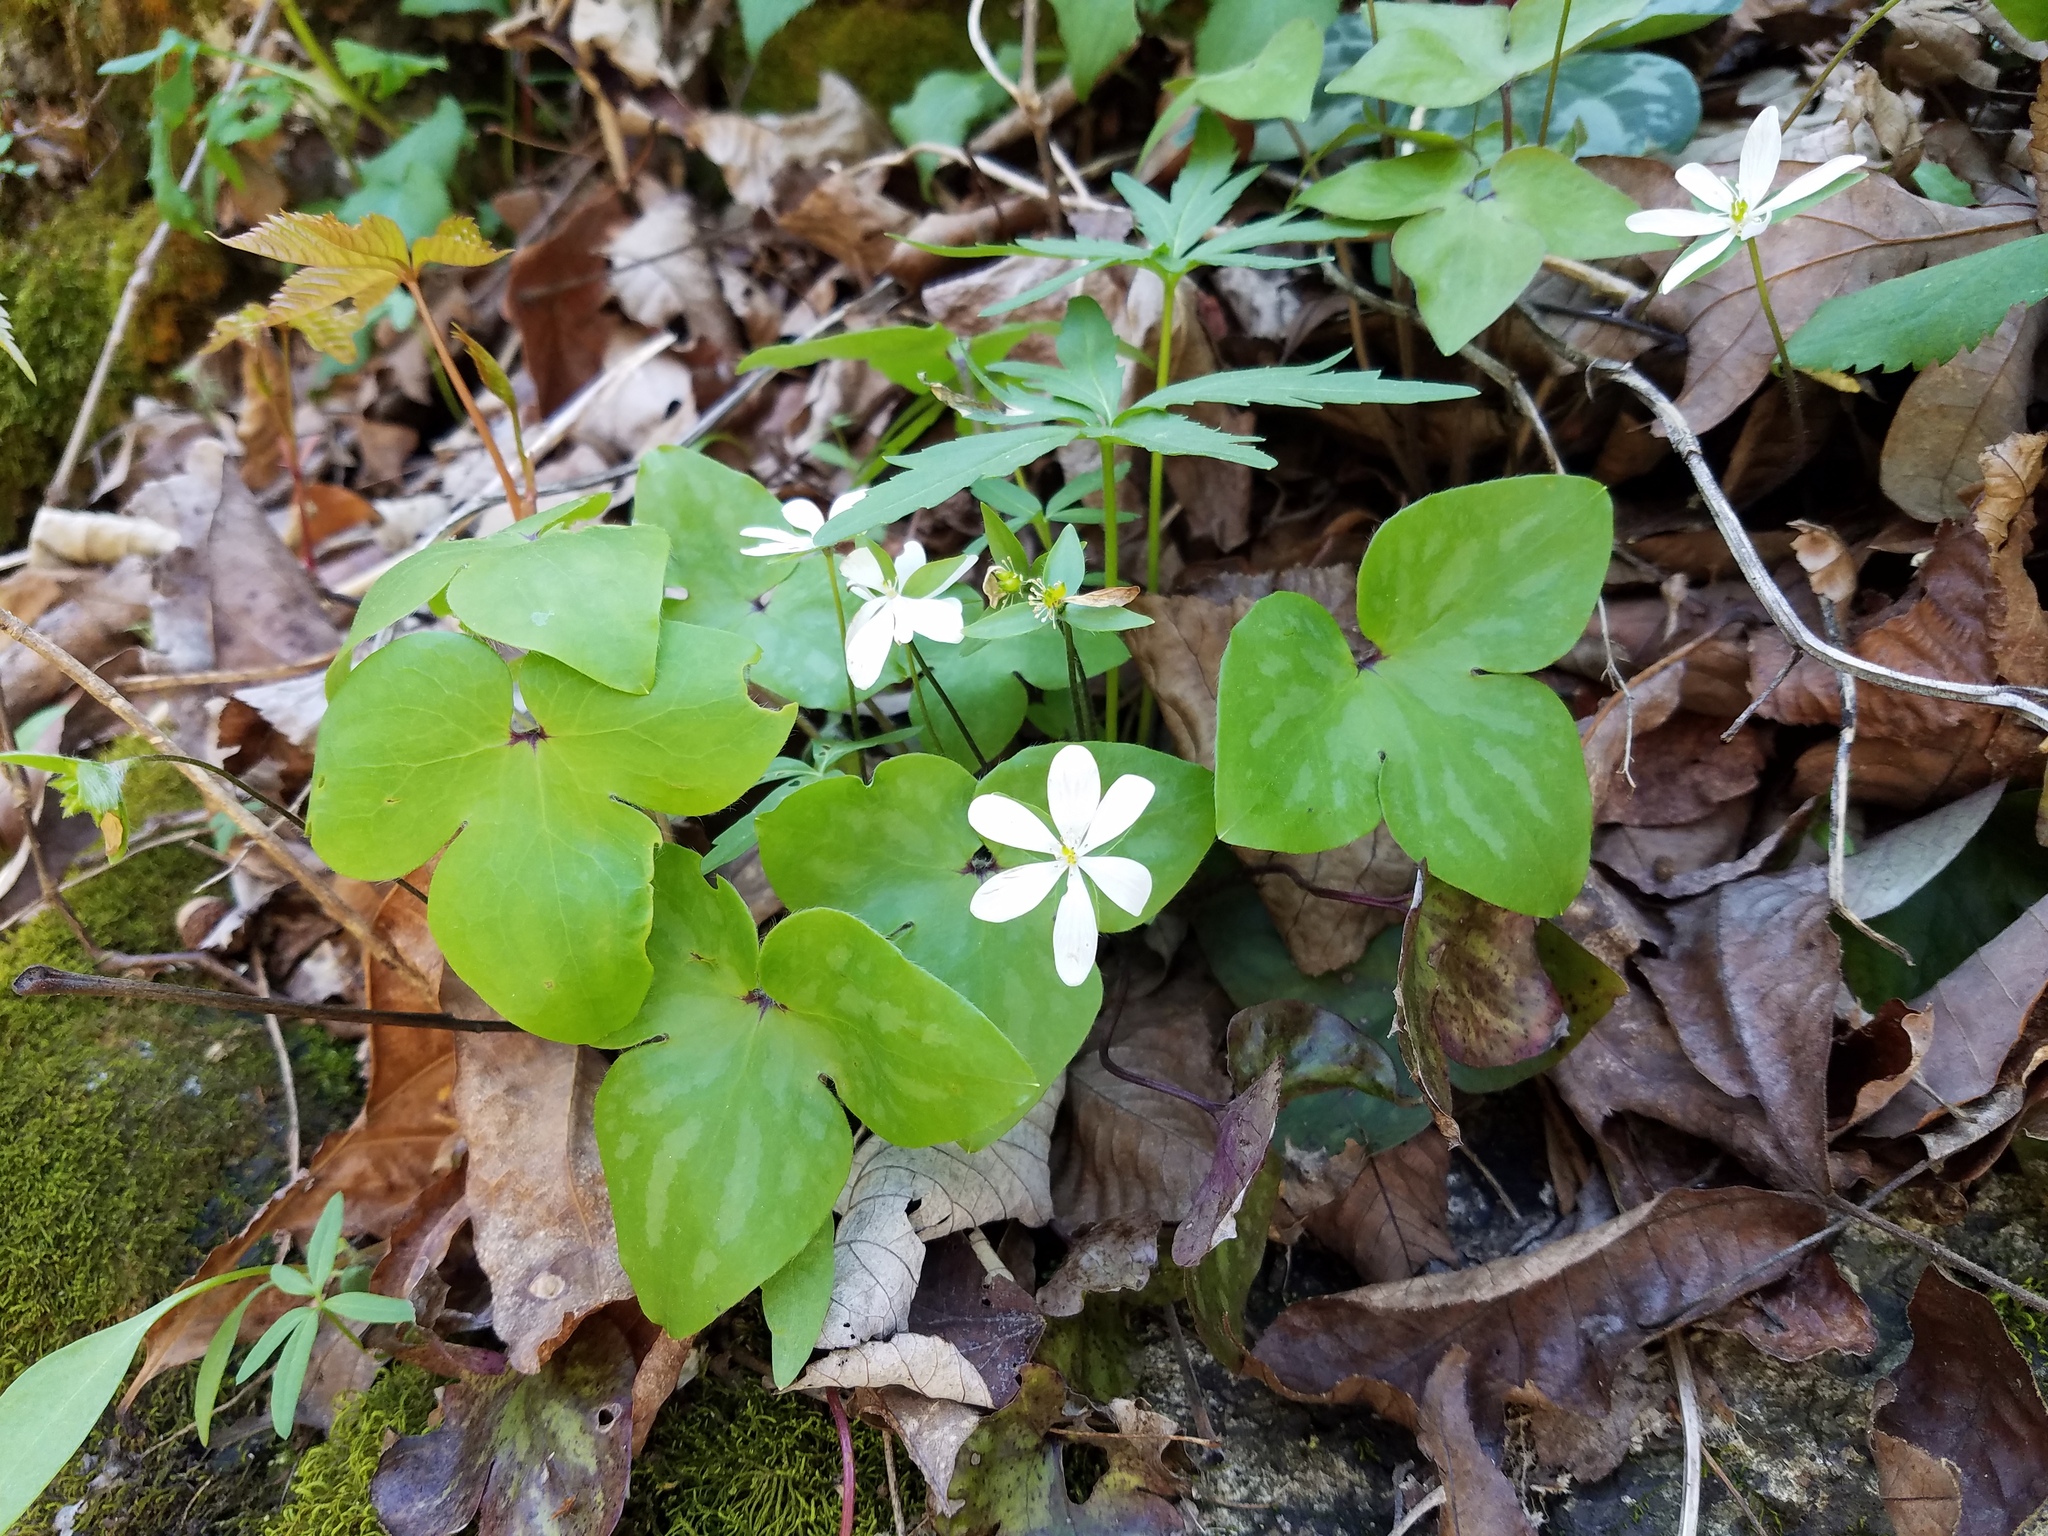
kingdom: Plantae
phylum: Tracheophyta
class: Magnoliopsida
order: Ranunculales
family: Ranunculaceae
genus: Hepatica
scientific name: Hepatica acutiloba
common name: Sharp-lobed hepatica
